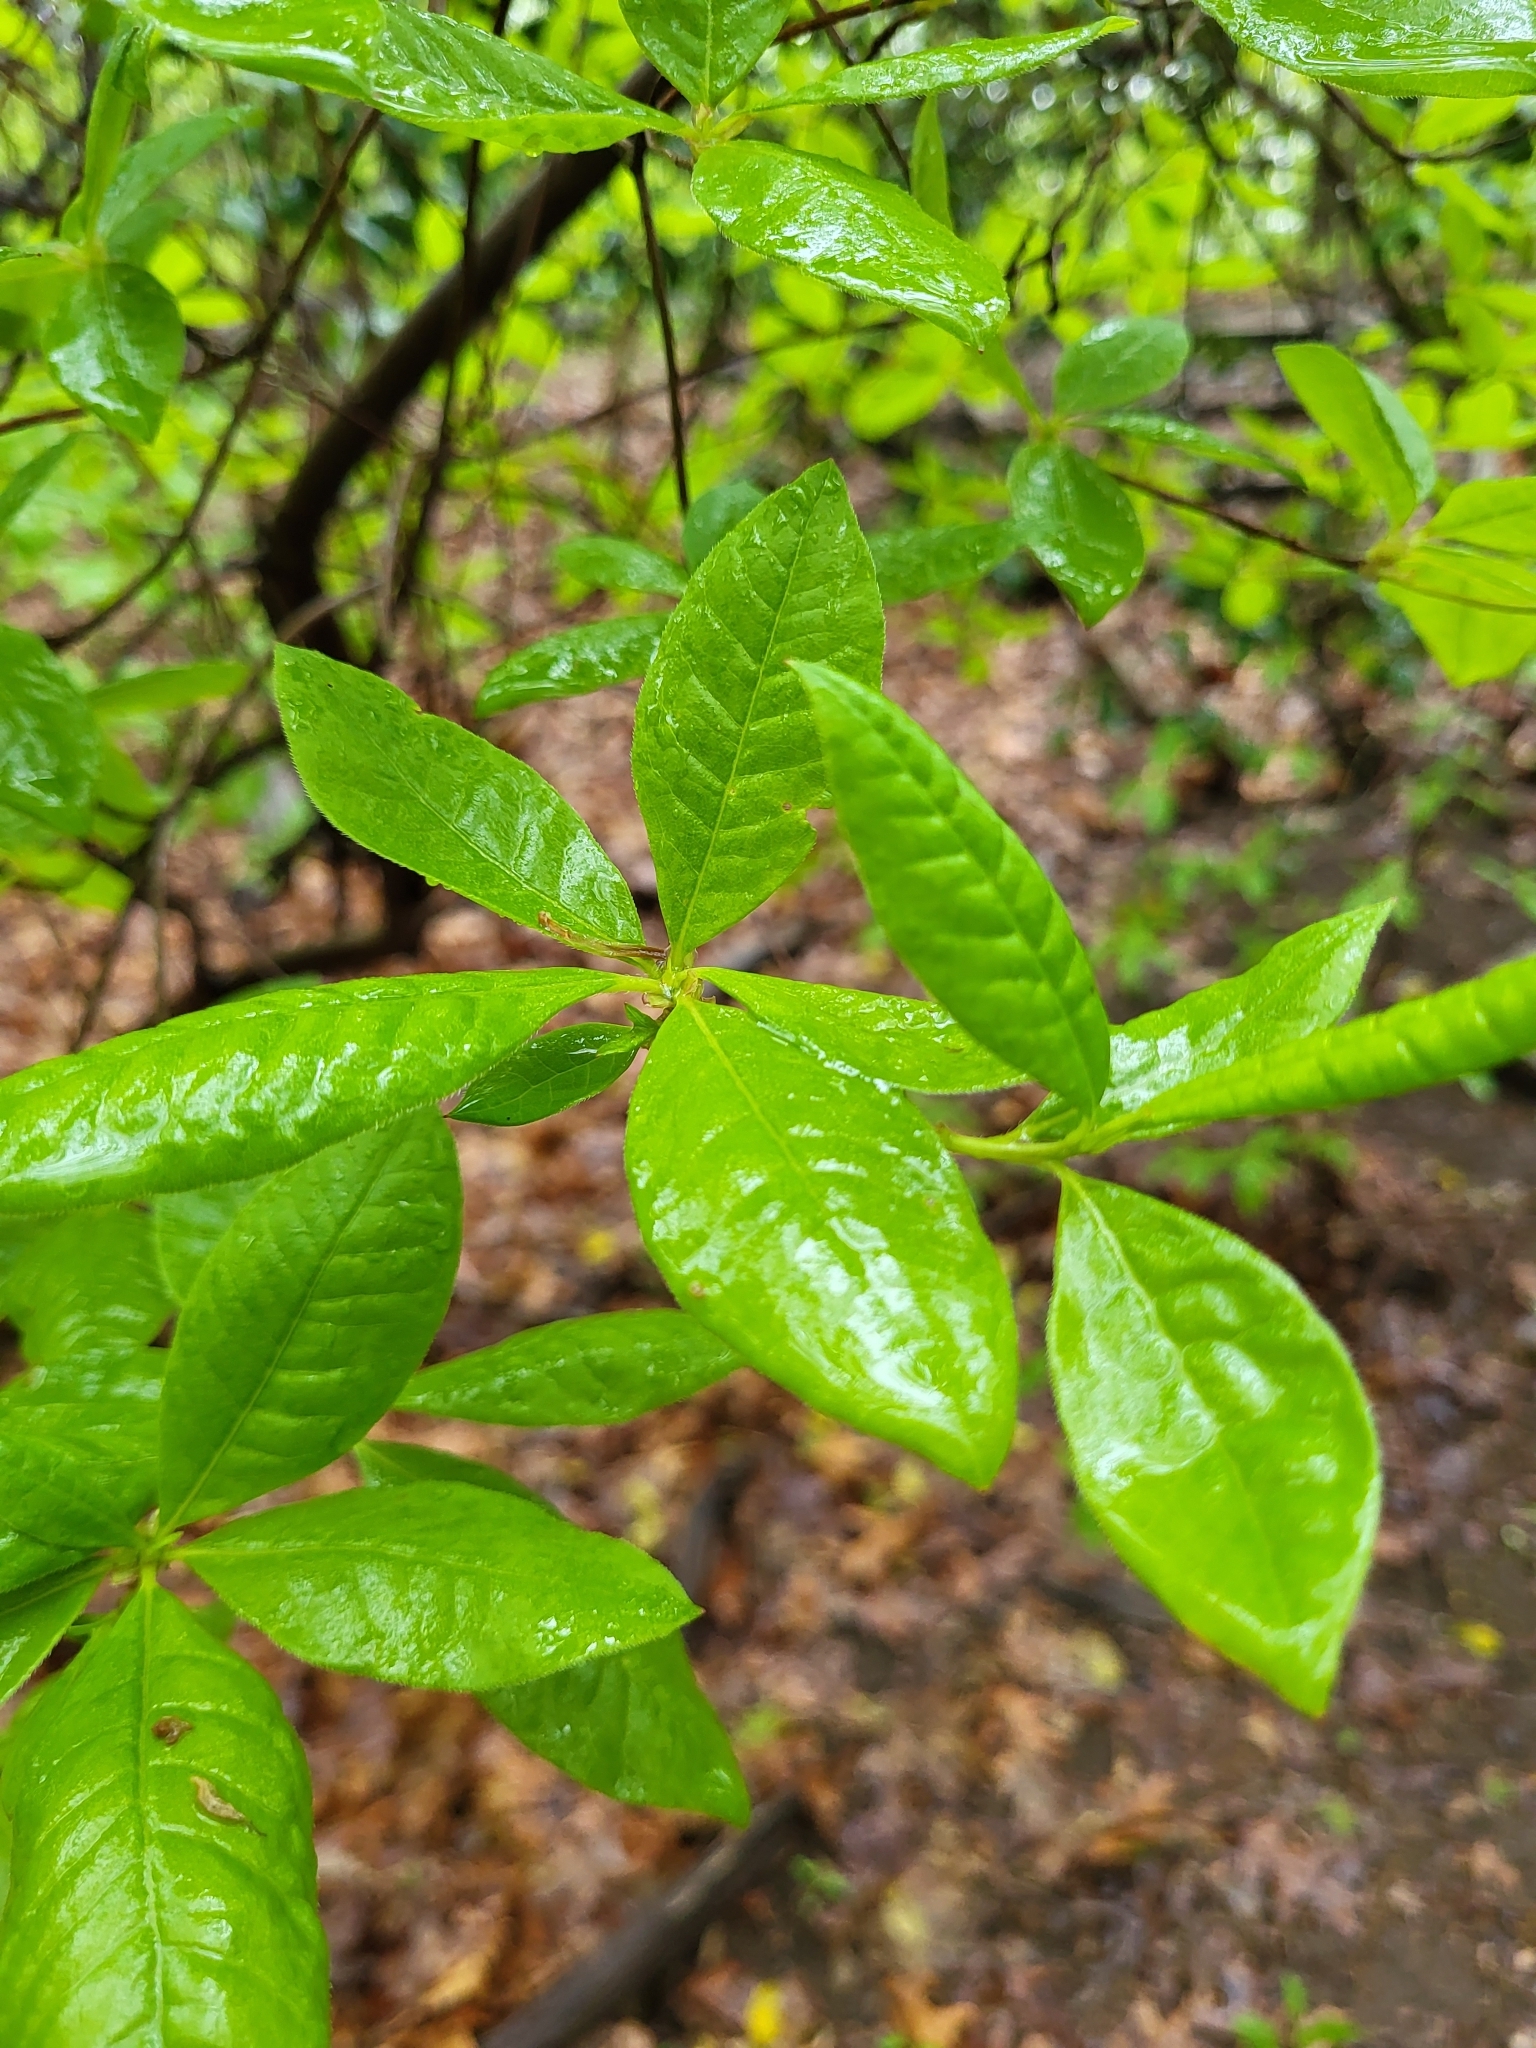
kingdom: Plantae
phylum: Tracheophyta
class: Magnoliopsida
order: Ericales
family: Ericaceae
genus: Rhododendron
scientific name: Rhododendron periclymenoides
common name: Election-pink
